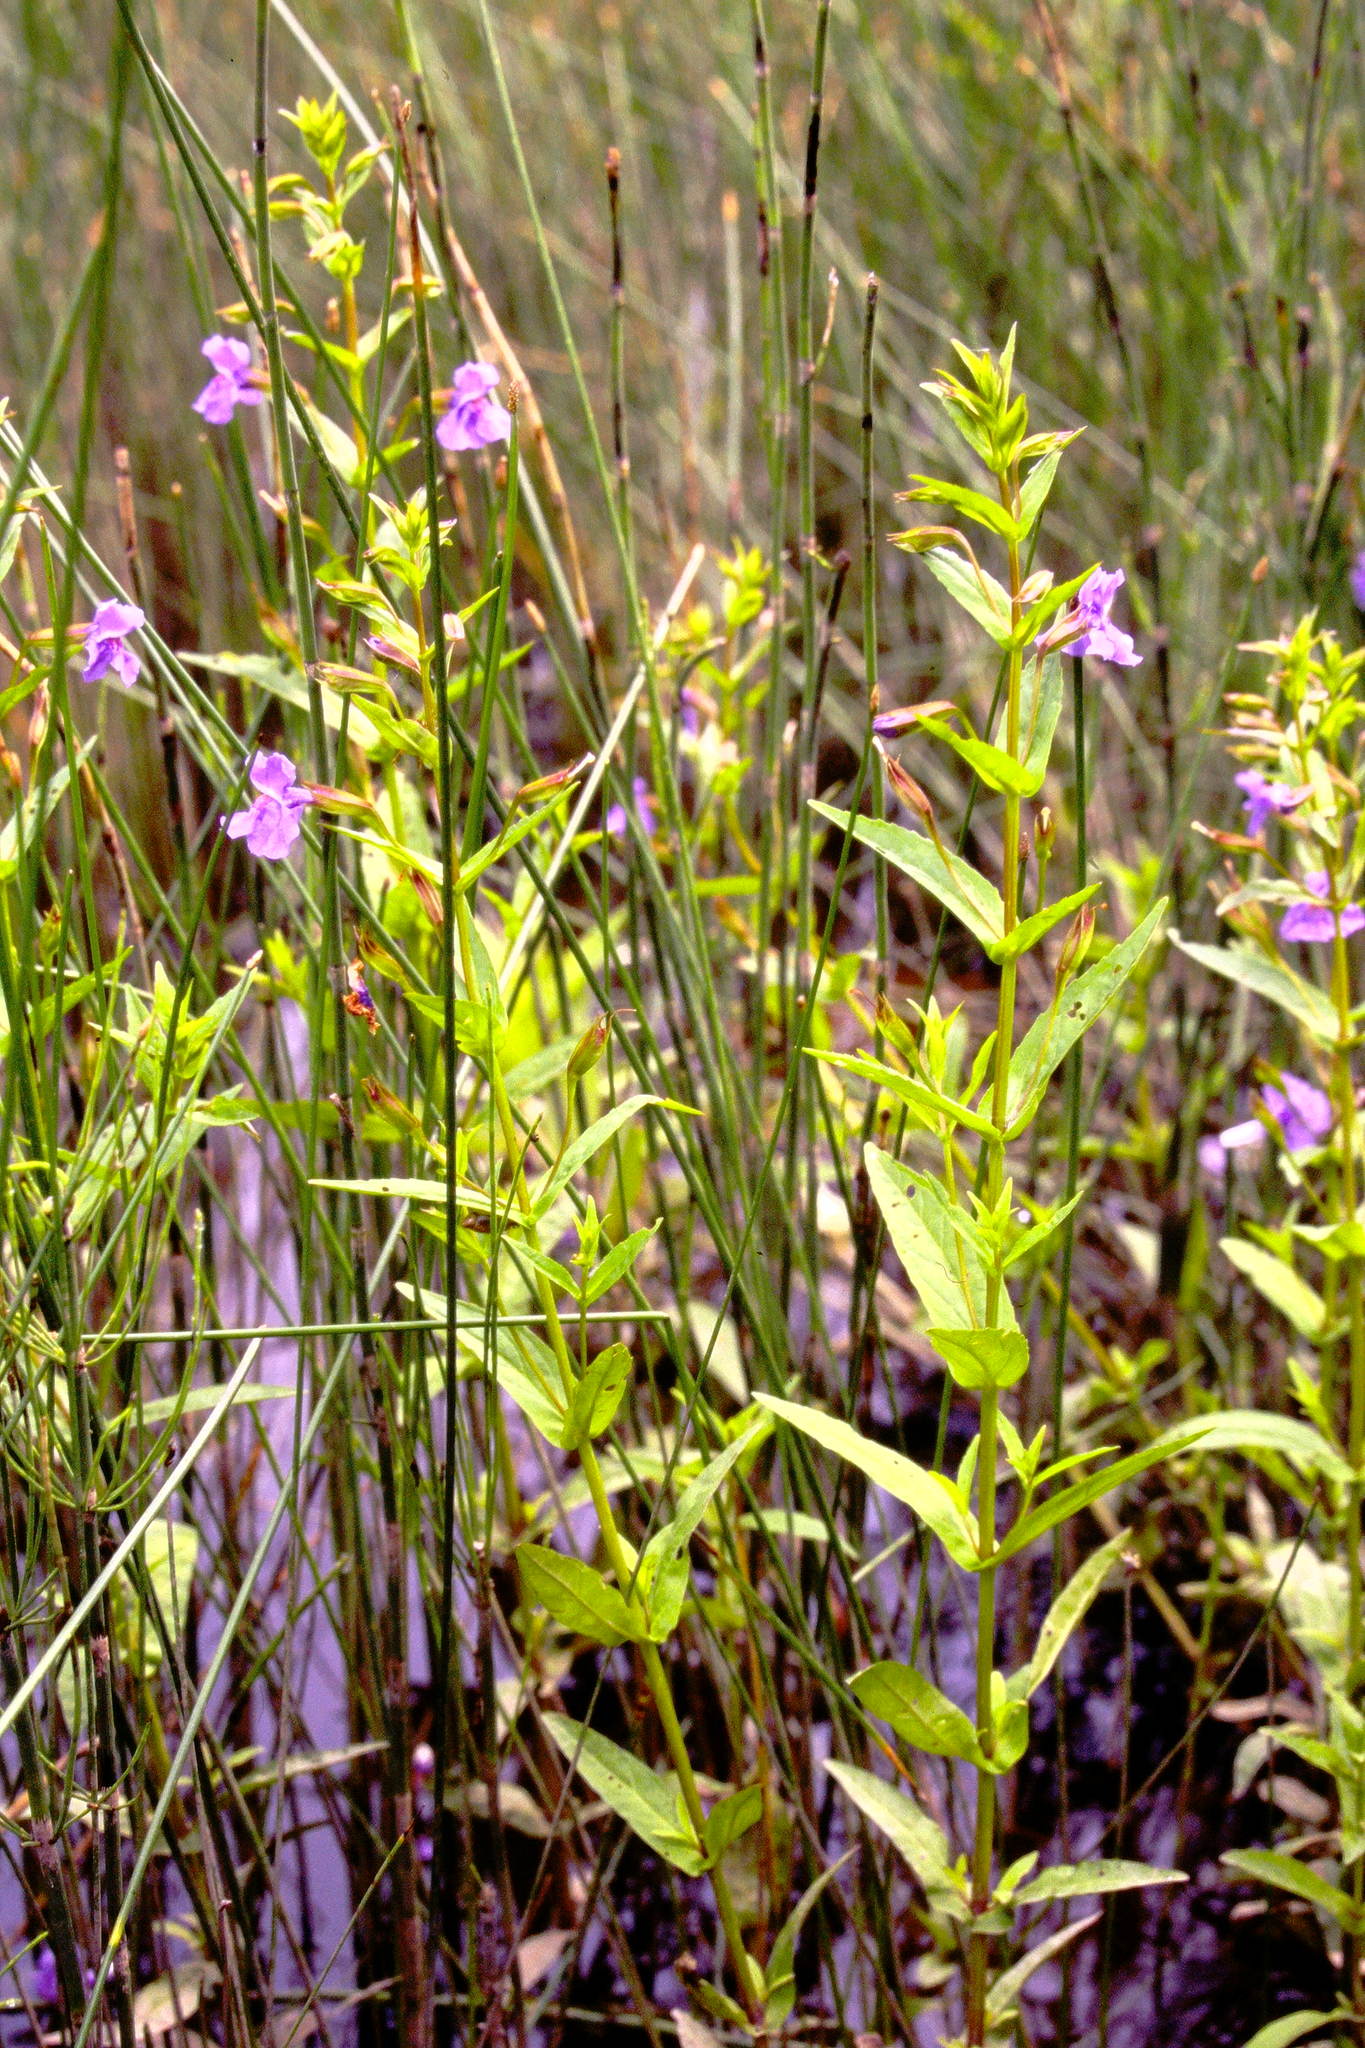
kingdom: Plantae
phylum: Tracheophyta
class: Magnoliopsida
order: Lamiales
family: Phrymaceae
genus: Mimulus
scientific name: Mimulus ringens
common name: Allegheny monkeyflower
